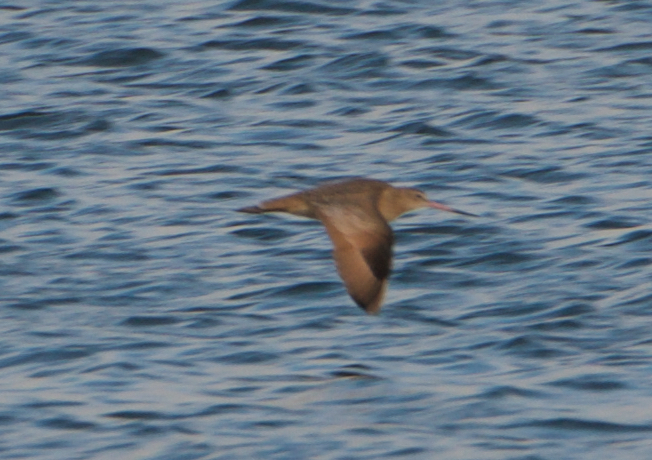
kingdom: Animalia
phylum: Chordata
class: Aves
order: Charadriiformes
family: Scolopacidae
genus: Limosa
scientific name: Limosa fedoa
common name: Marbled godwit
